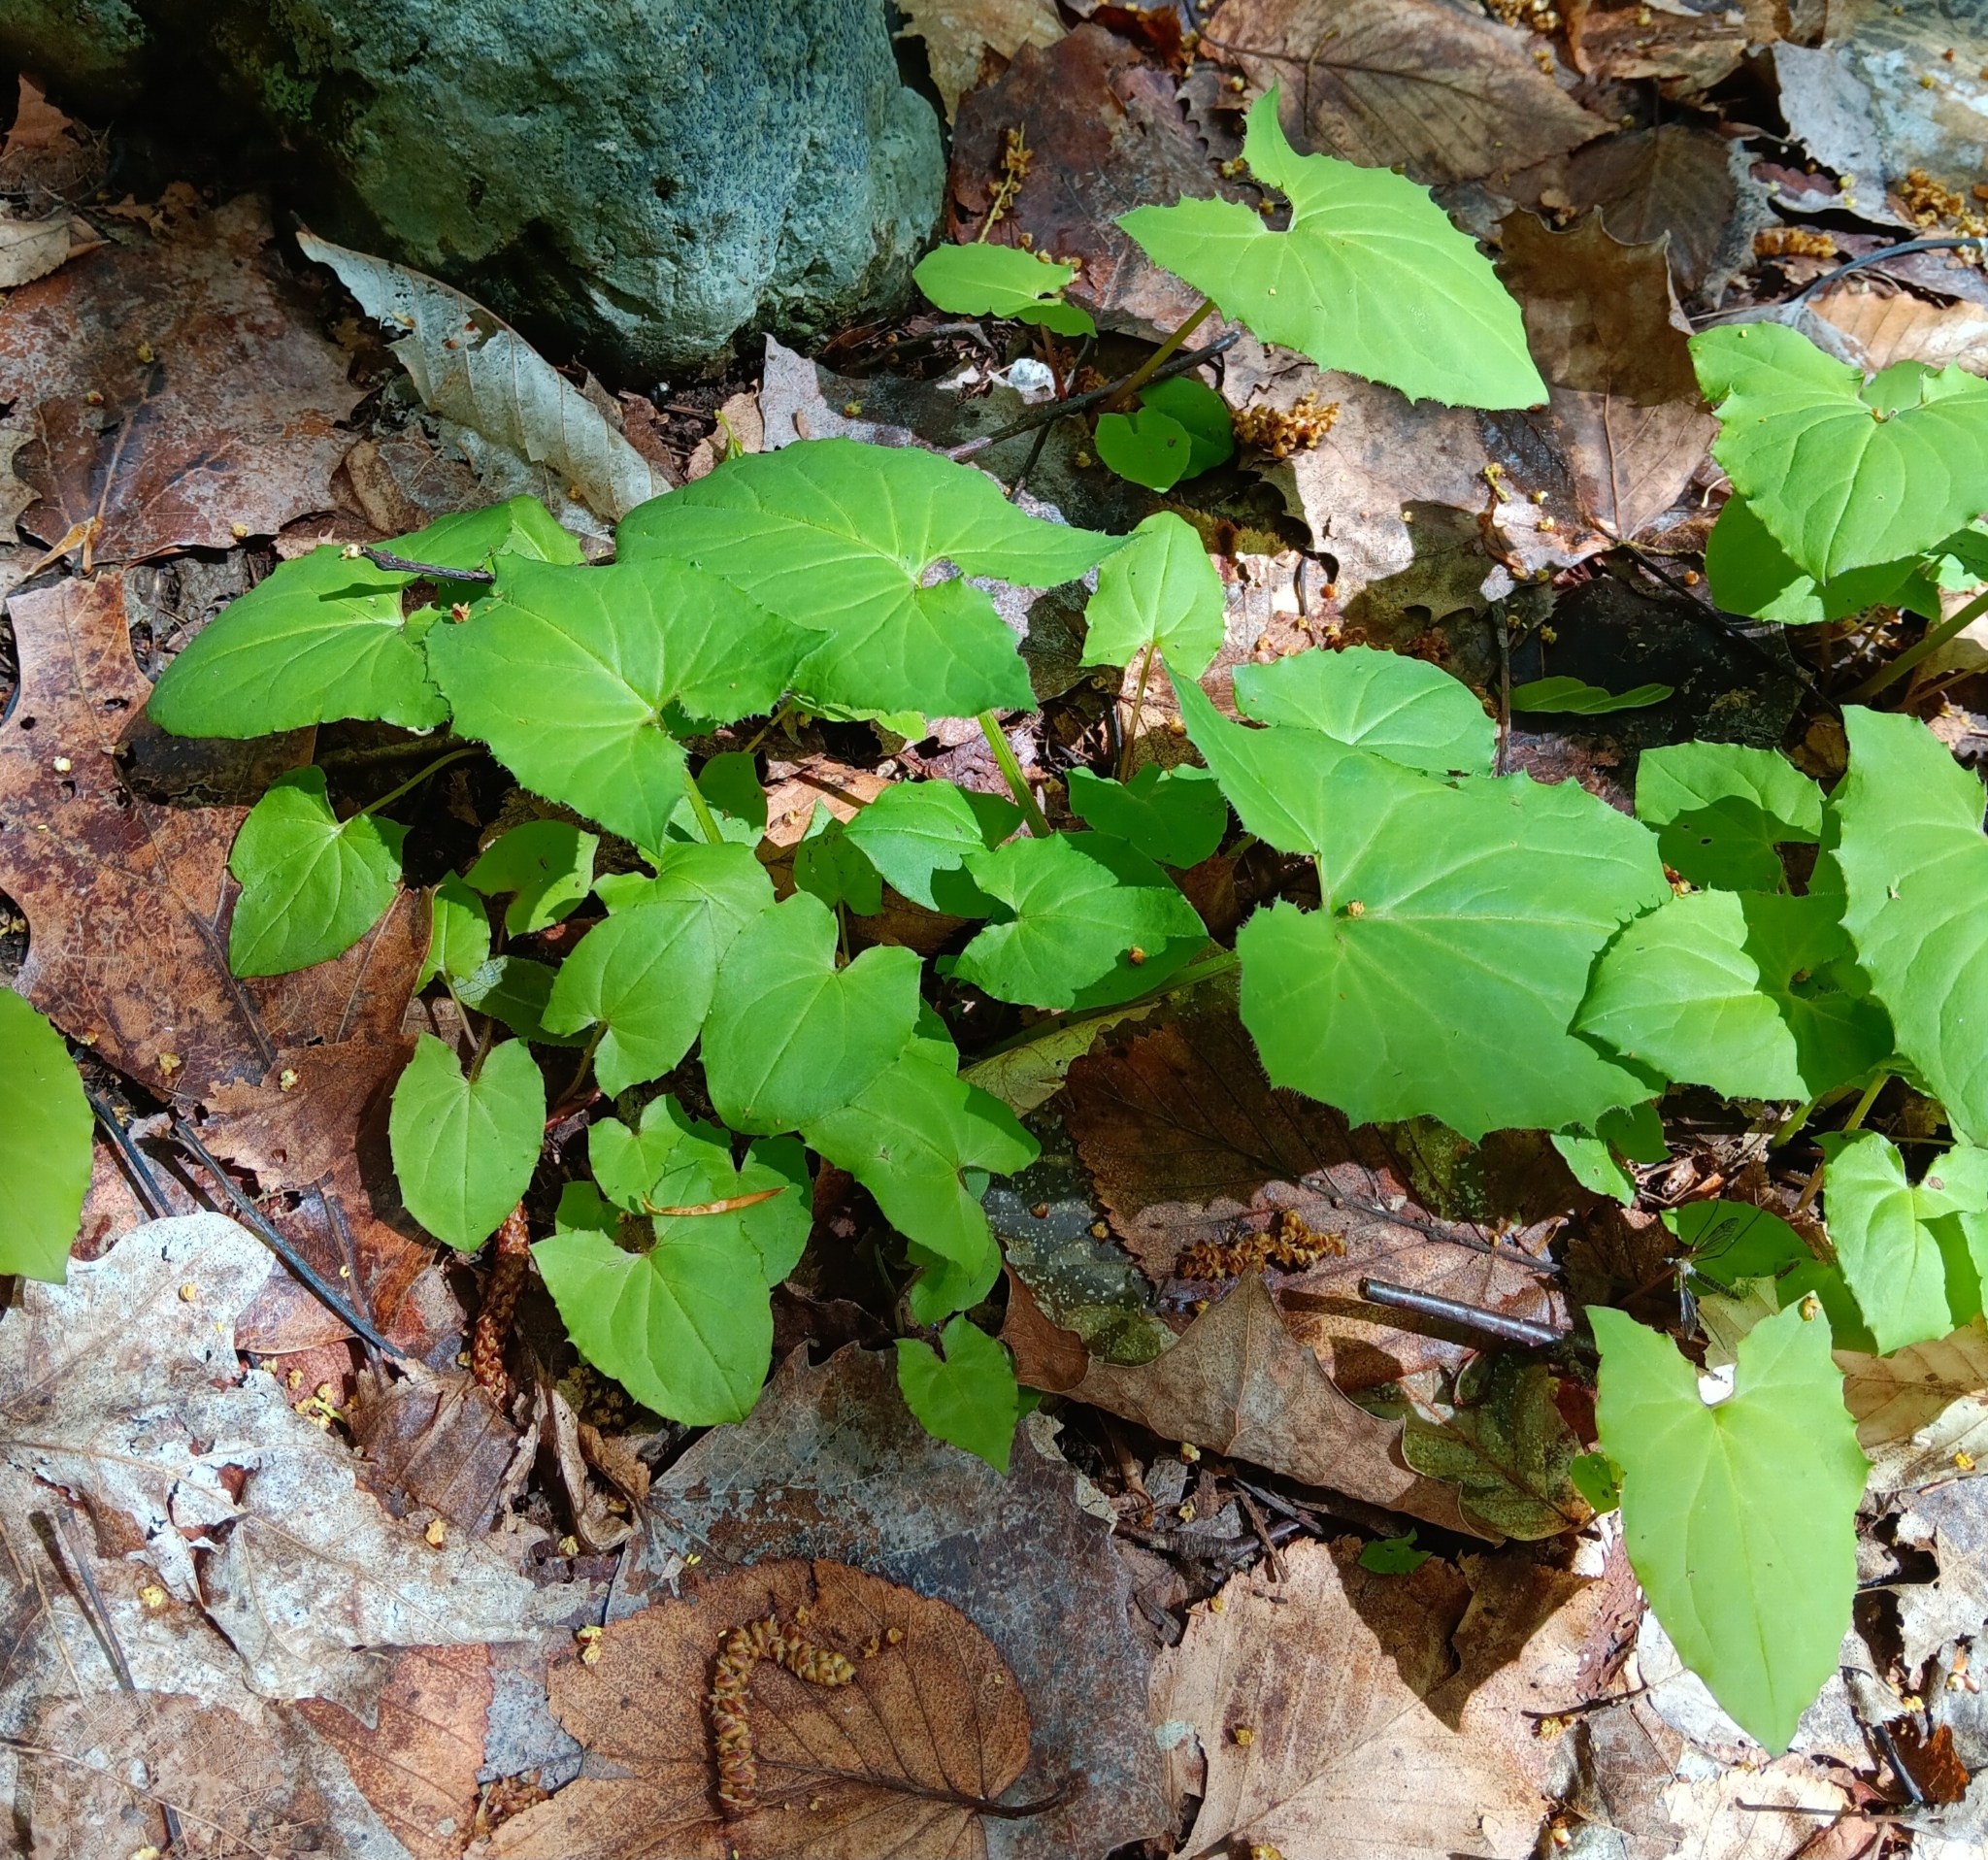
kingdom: Plantae
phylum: Tracheophyta
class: Magnoliopsida
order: Asterales
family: Asteraceae
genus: Tussilago
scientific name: Tussilago farfara
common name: Coltsfoot
